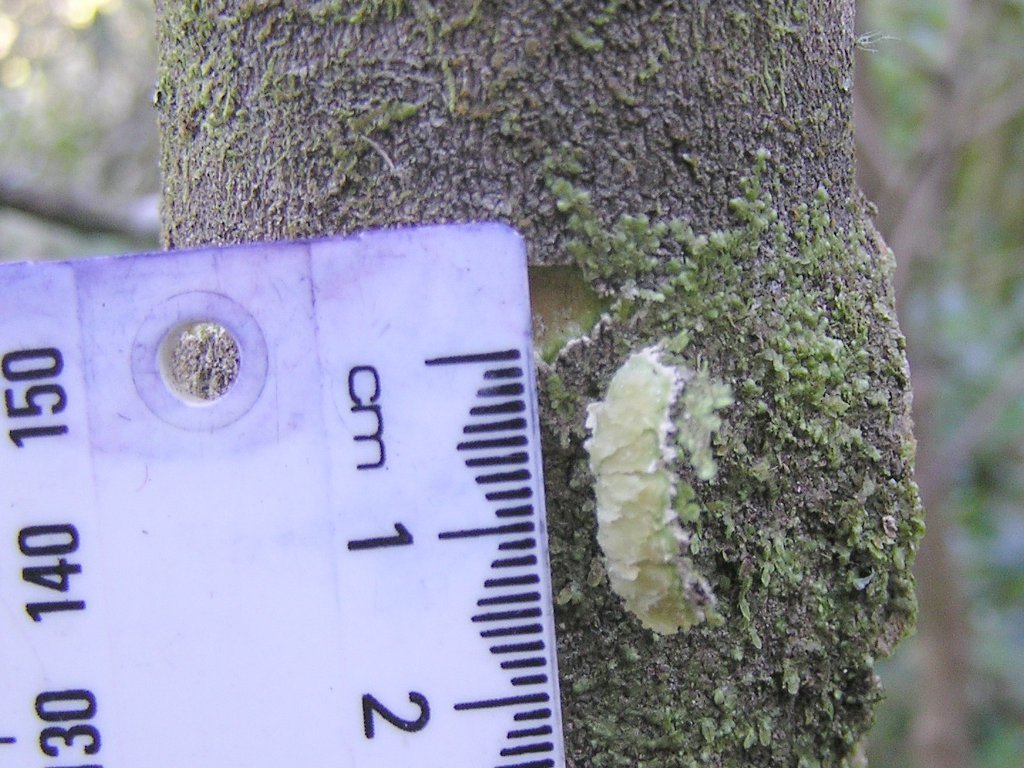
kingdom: Plantae
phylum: Tracheophyta
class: Magnoliopsida
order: Malpighiales
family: Violaceae
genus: Melicytus
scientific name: Melicytus ramiflorus
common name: Mahoe
